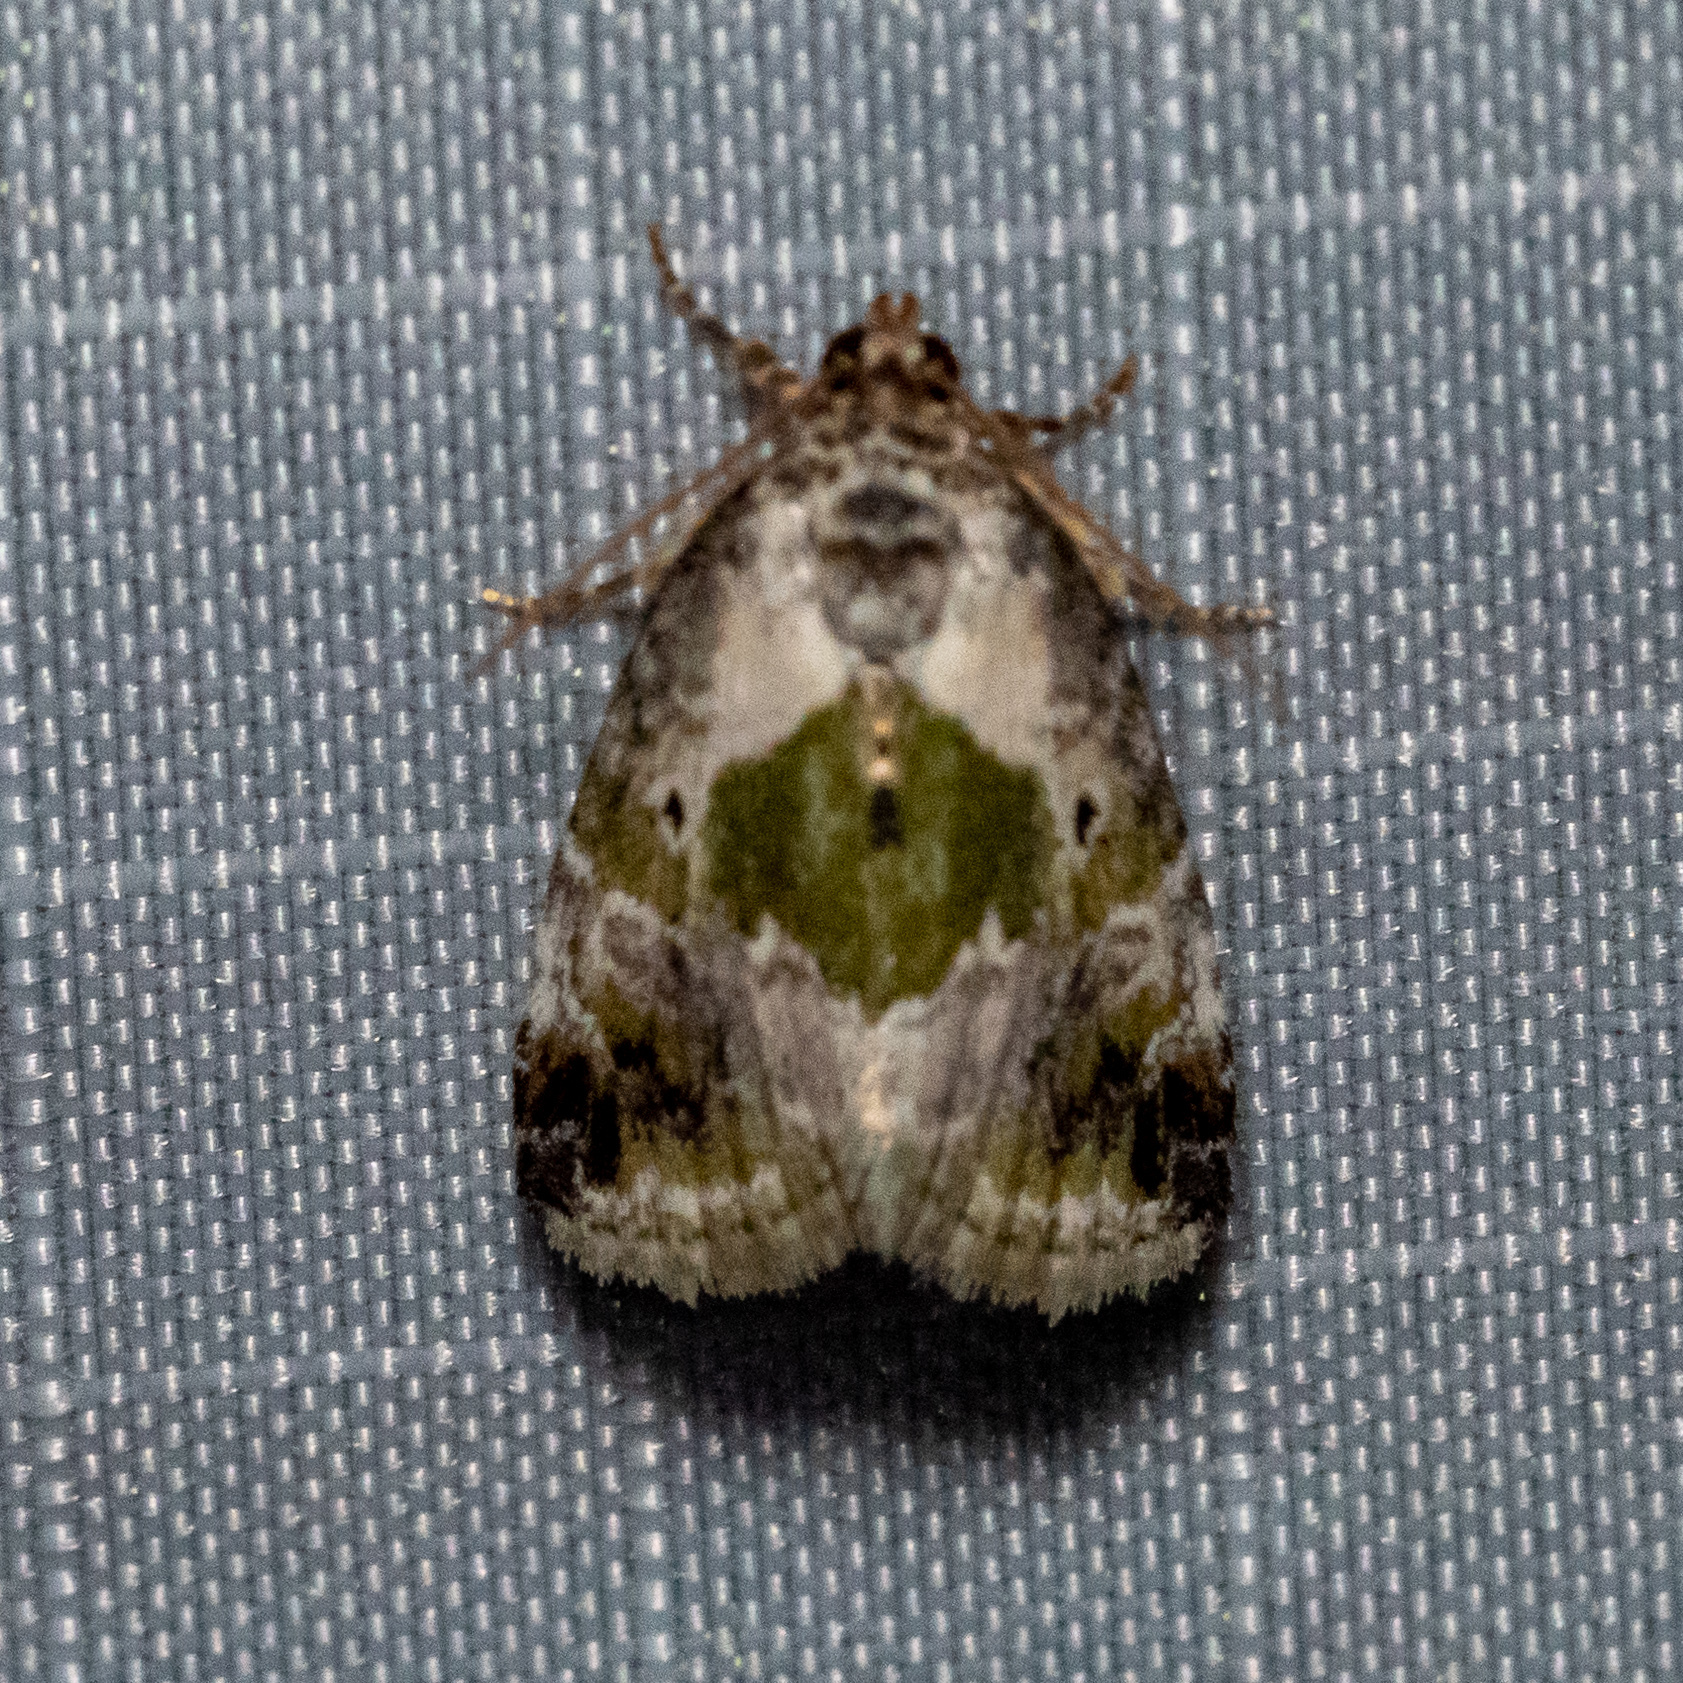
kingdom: Animalia
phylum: Arthropoda
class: Insecta
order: Lepidoptera
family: Noctuidae
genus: Maliattha
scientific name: Maliattha synochitis
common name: Black-dotted glyph
